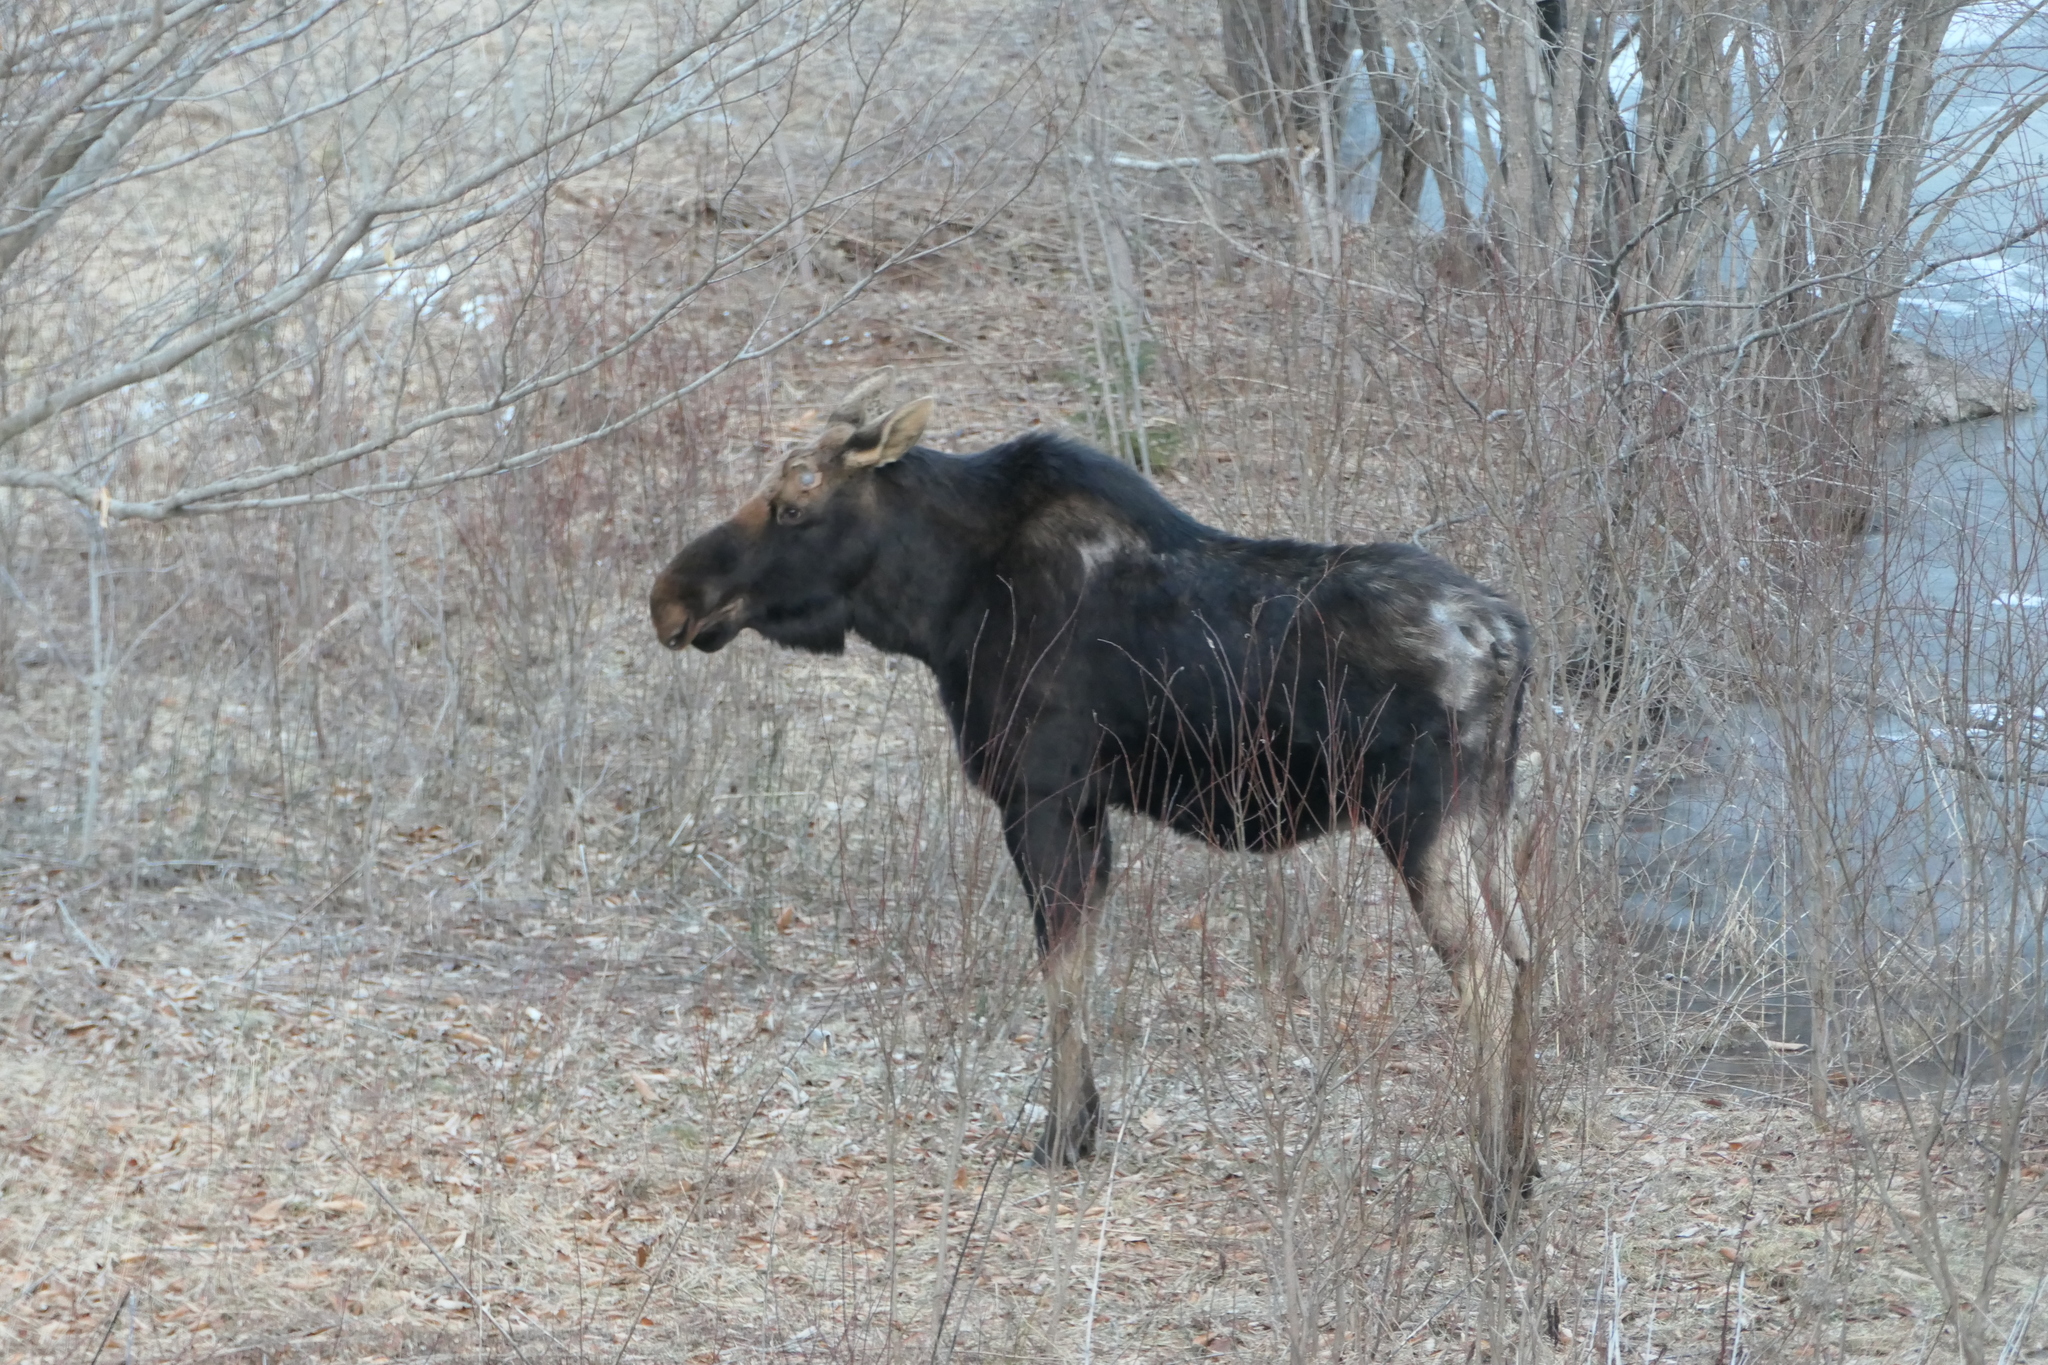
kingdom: Animalia
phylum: Chordata
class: Mammalia
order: Artiodactyla
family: Cervidae
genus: Alces
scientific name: Alces alces
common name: Moose
